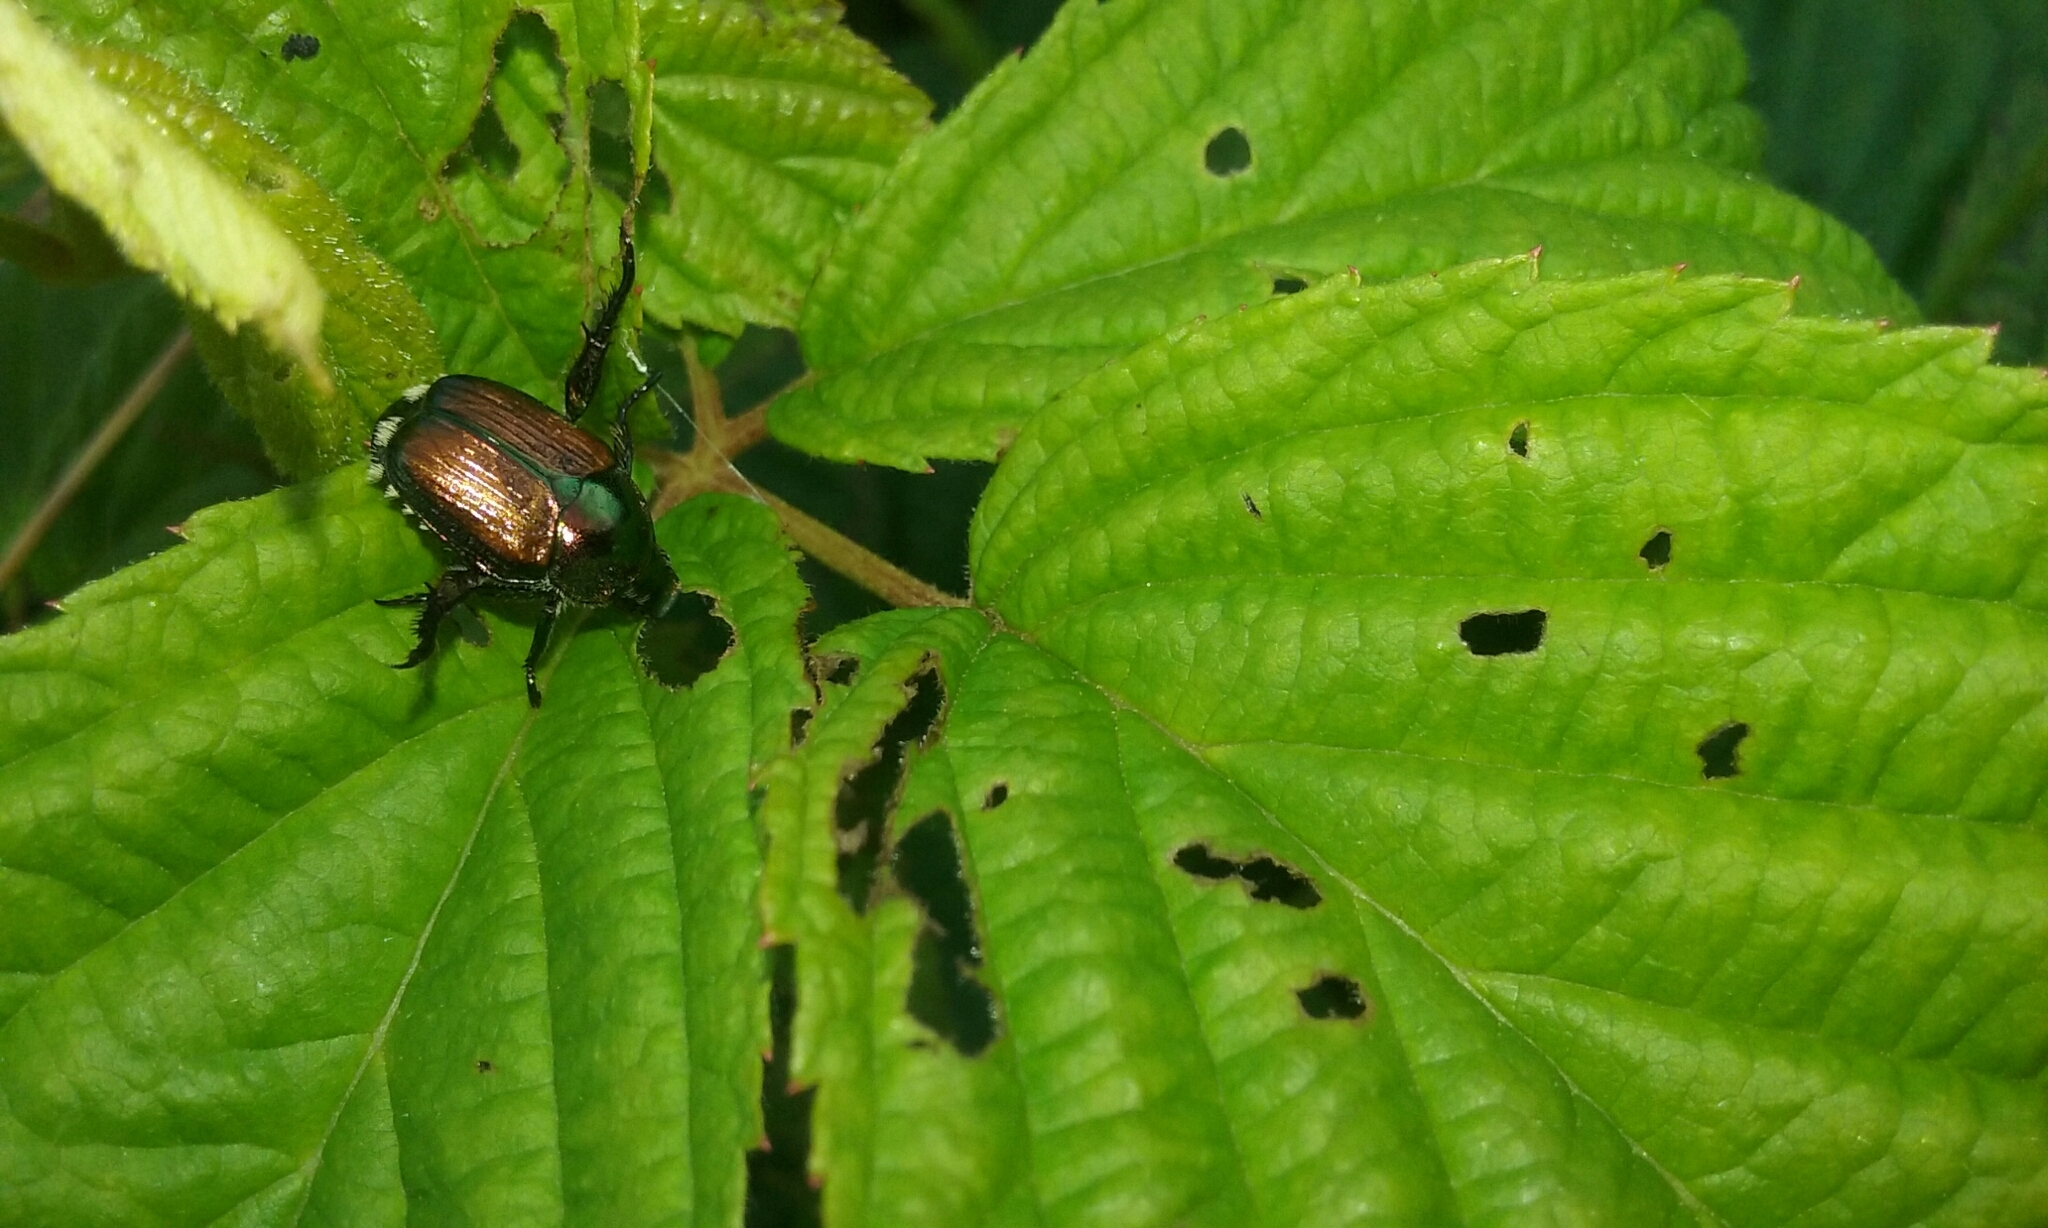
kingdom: Animalia
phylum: Arthropoda
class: Insecta
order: Coleoptera
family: Scarabaeidae
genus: Popillia
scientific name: Popillia japonica
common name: Japanese beetle
